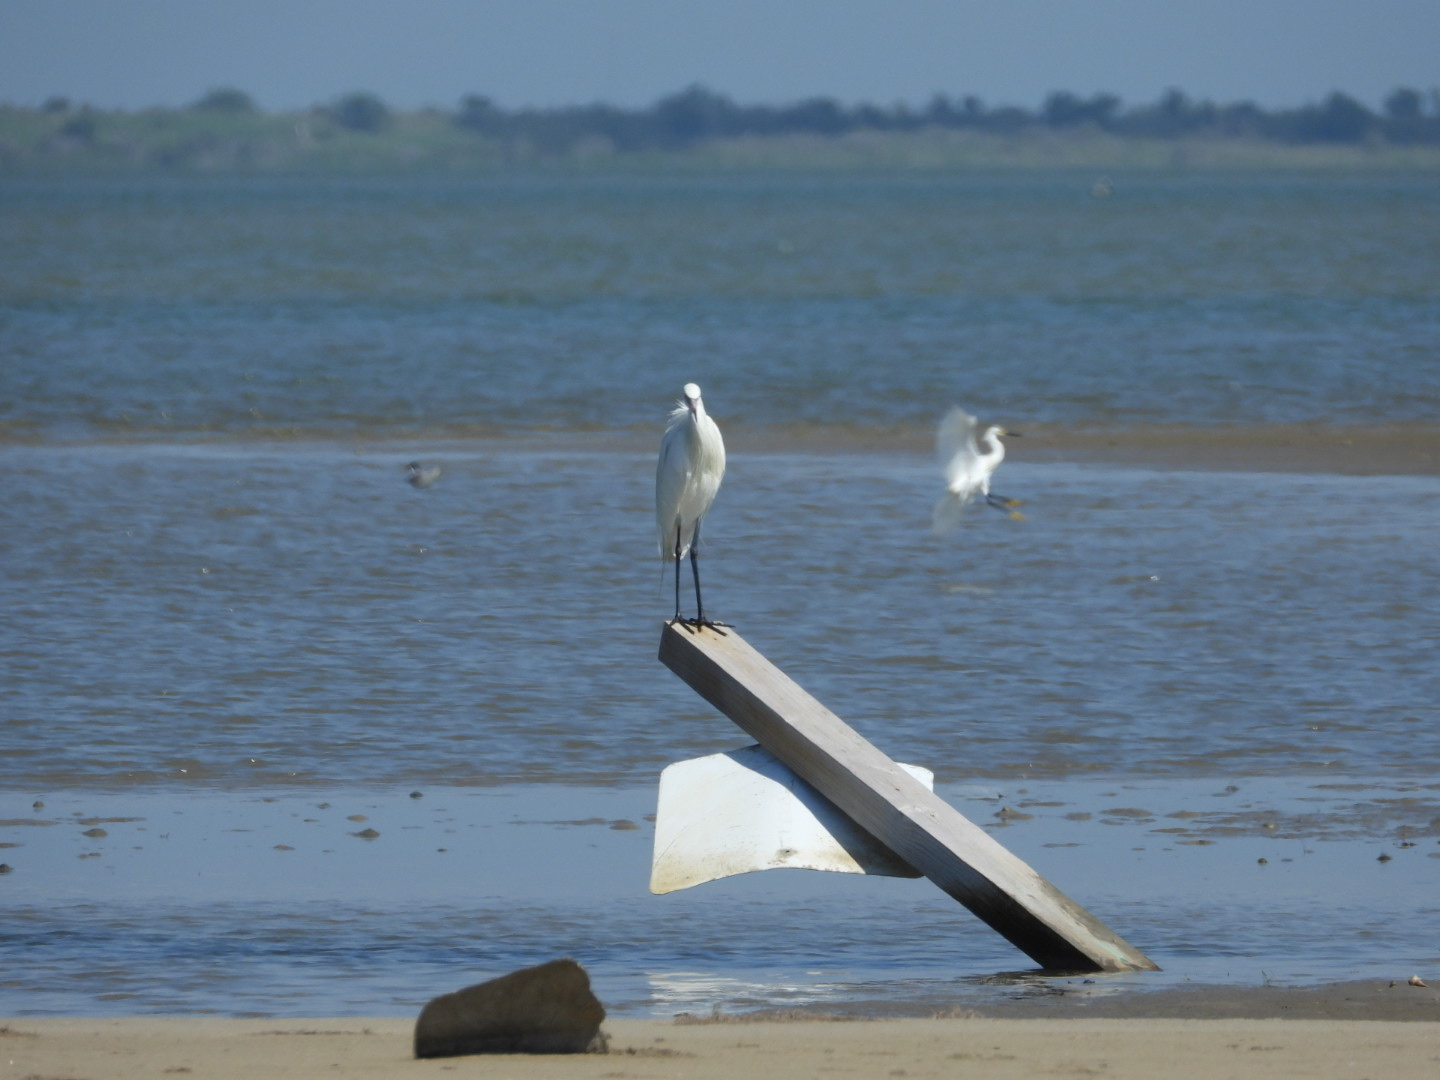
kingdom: Animalia
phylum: Chordata
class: Aves
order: Pelecaniformes
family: Ardeidae
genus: Egretta
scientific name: Egretta caerulea
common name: Little blue heron
